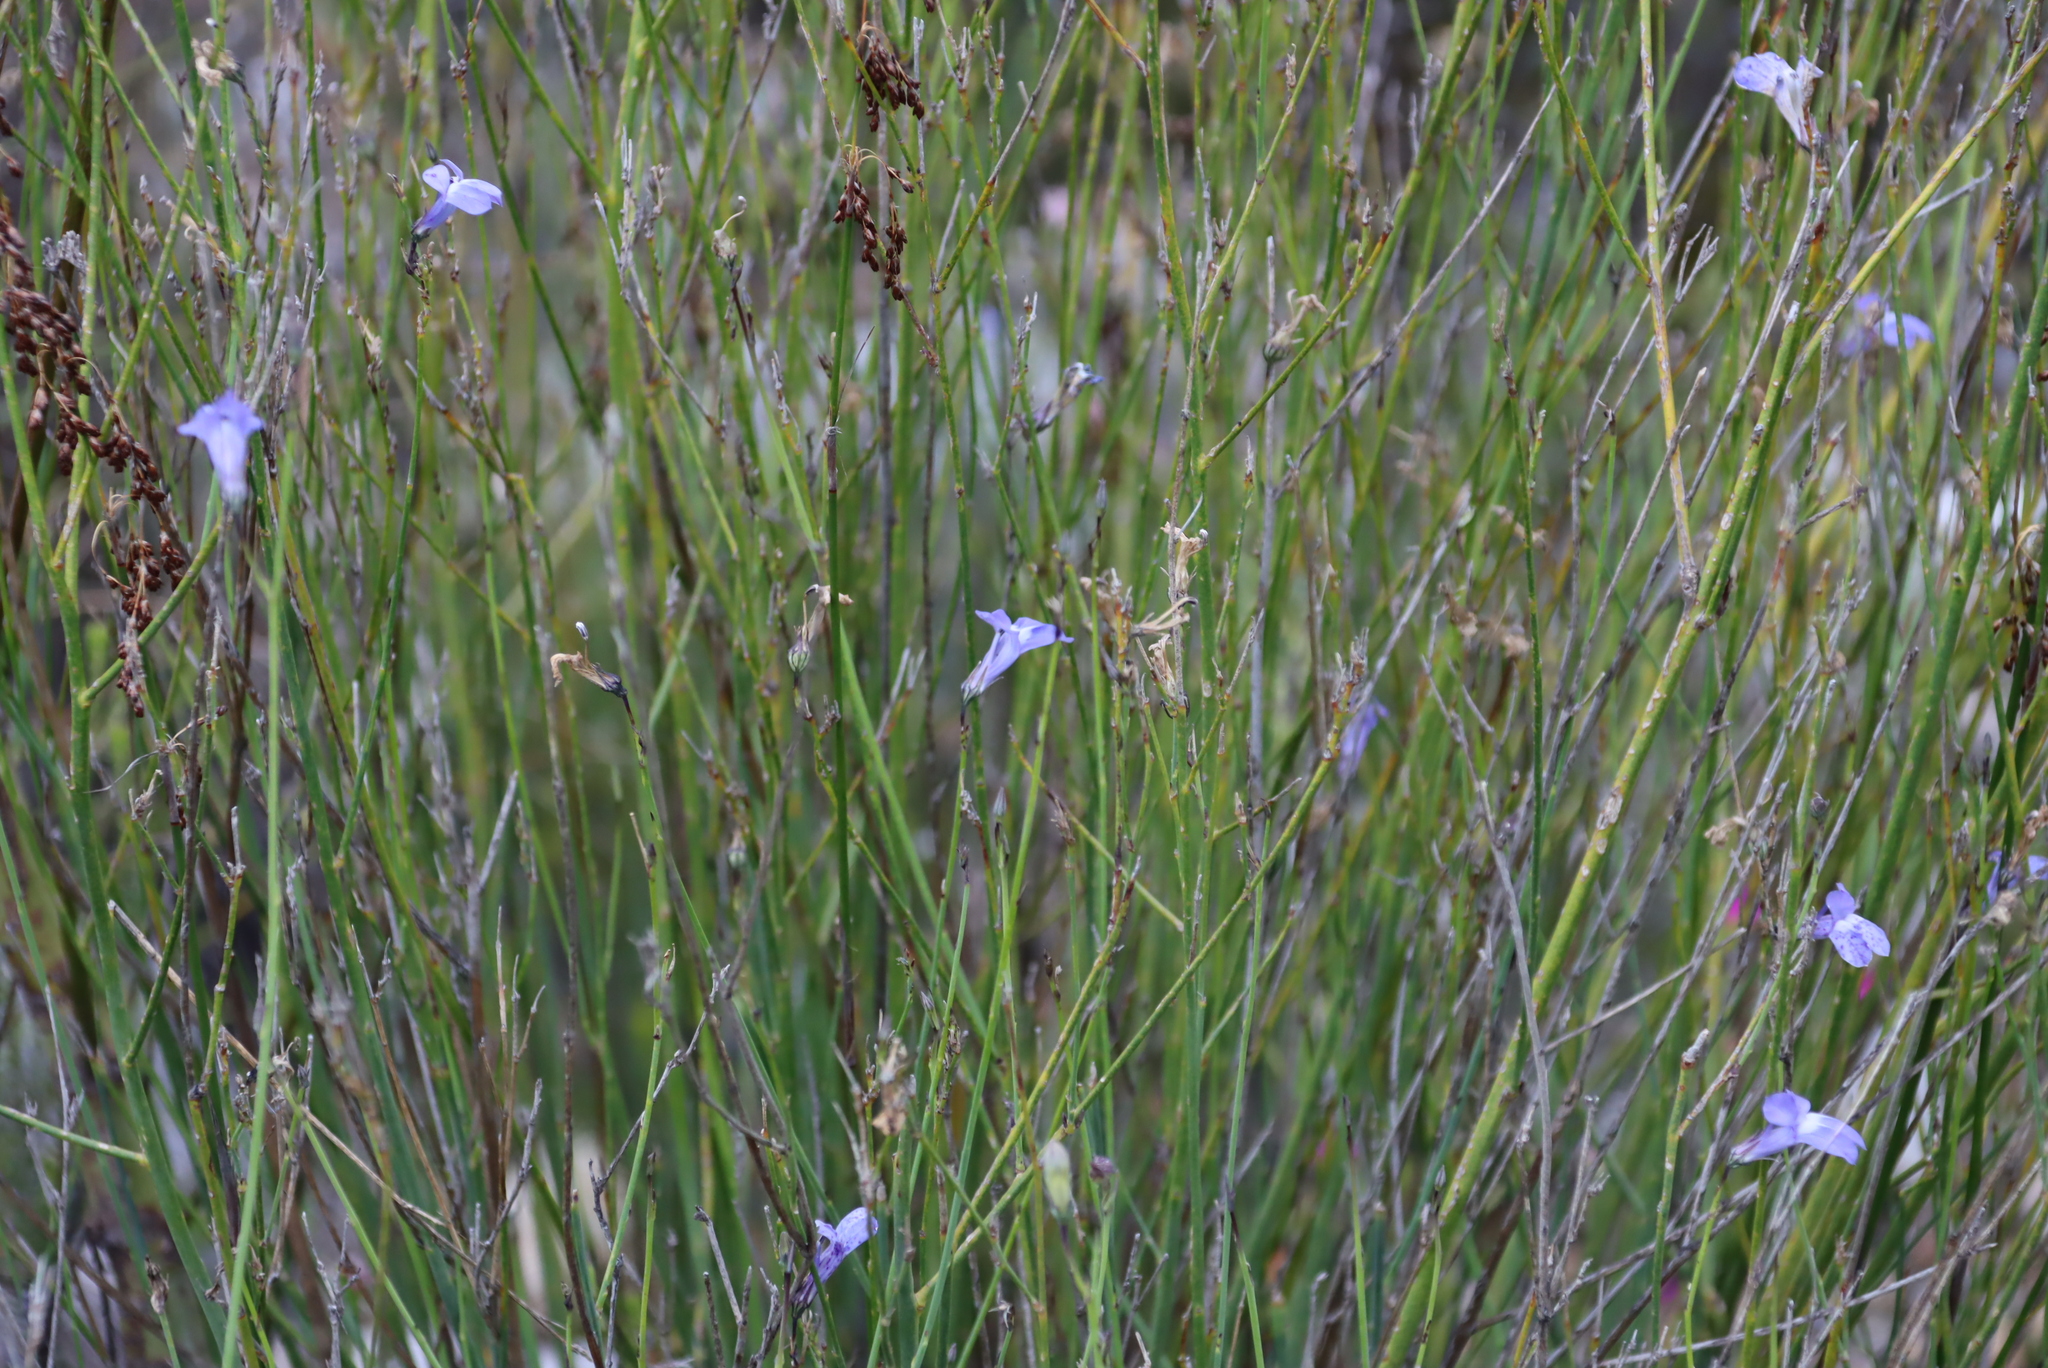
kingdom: Plantae
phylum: Tracheophyta
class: Magnoliopsida
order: Asterales
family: Campanulaceae
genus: Lobelia
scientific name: Lobelia linearis
